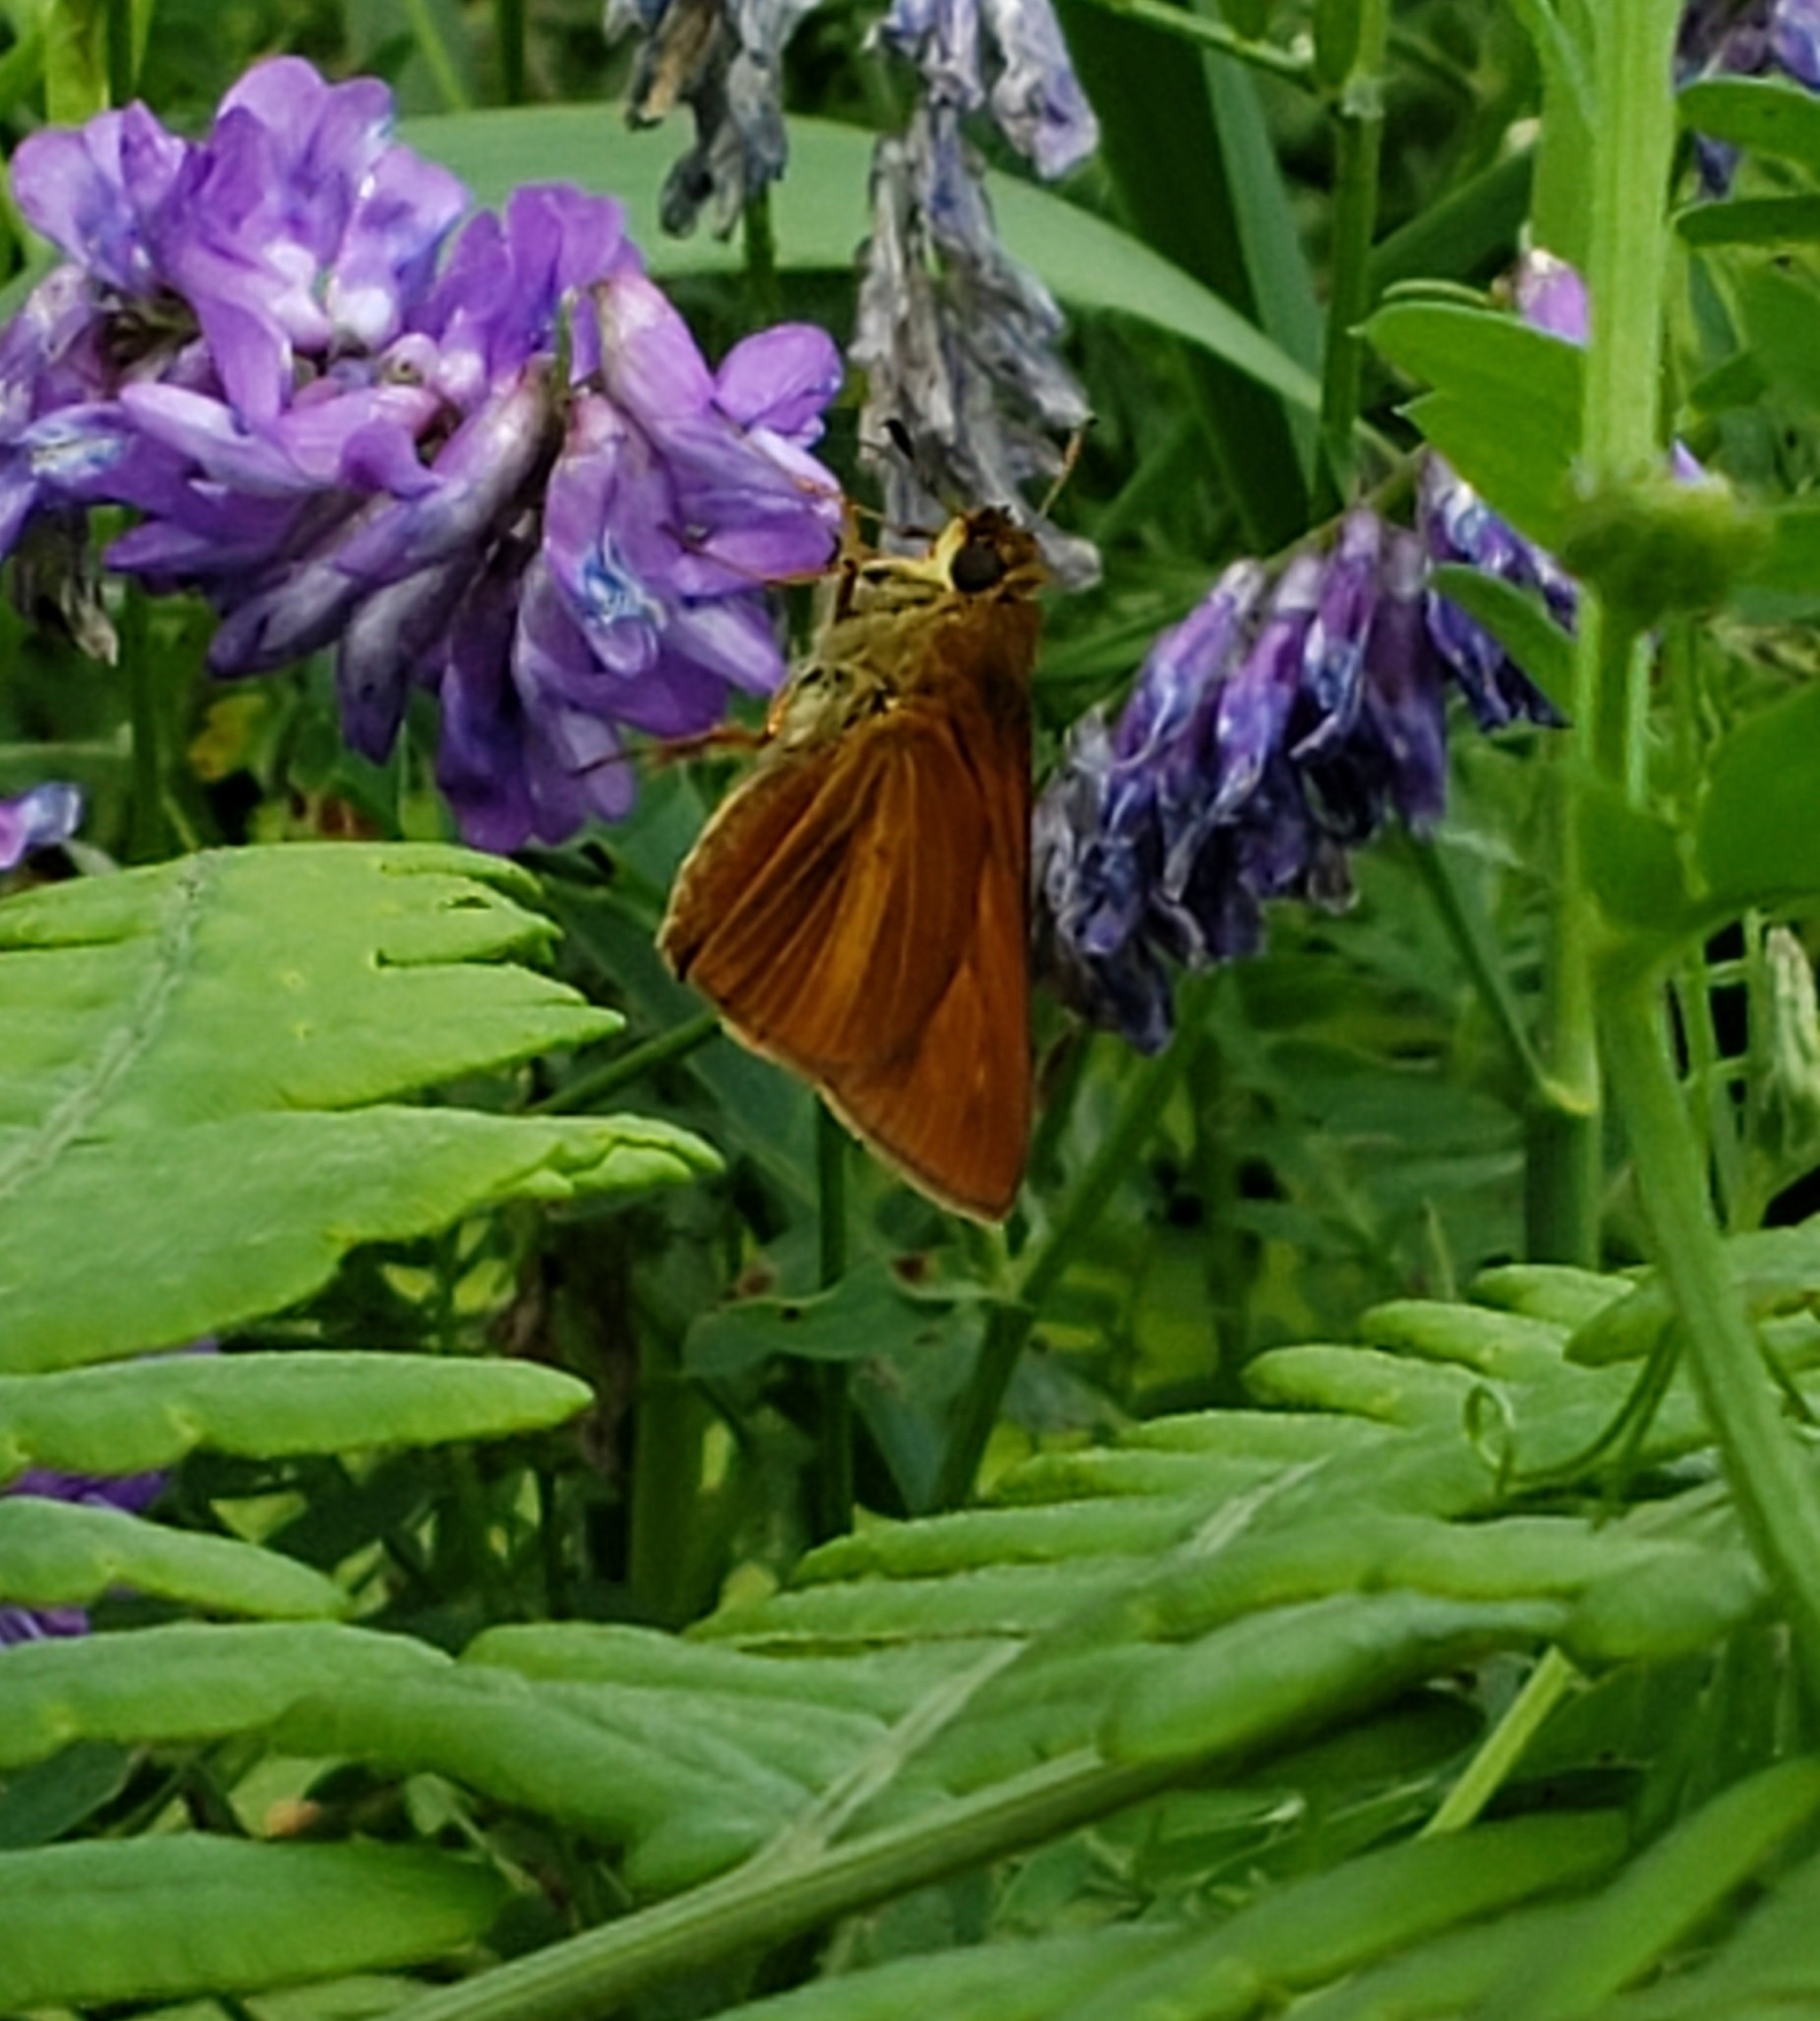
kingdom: Animalia
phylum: Arthropoda
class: Insecta
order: Lepidoptera
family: Hesperiidae
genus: Euphyes
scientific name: Euphyes dion
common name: Dion skipper
